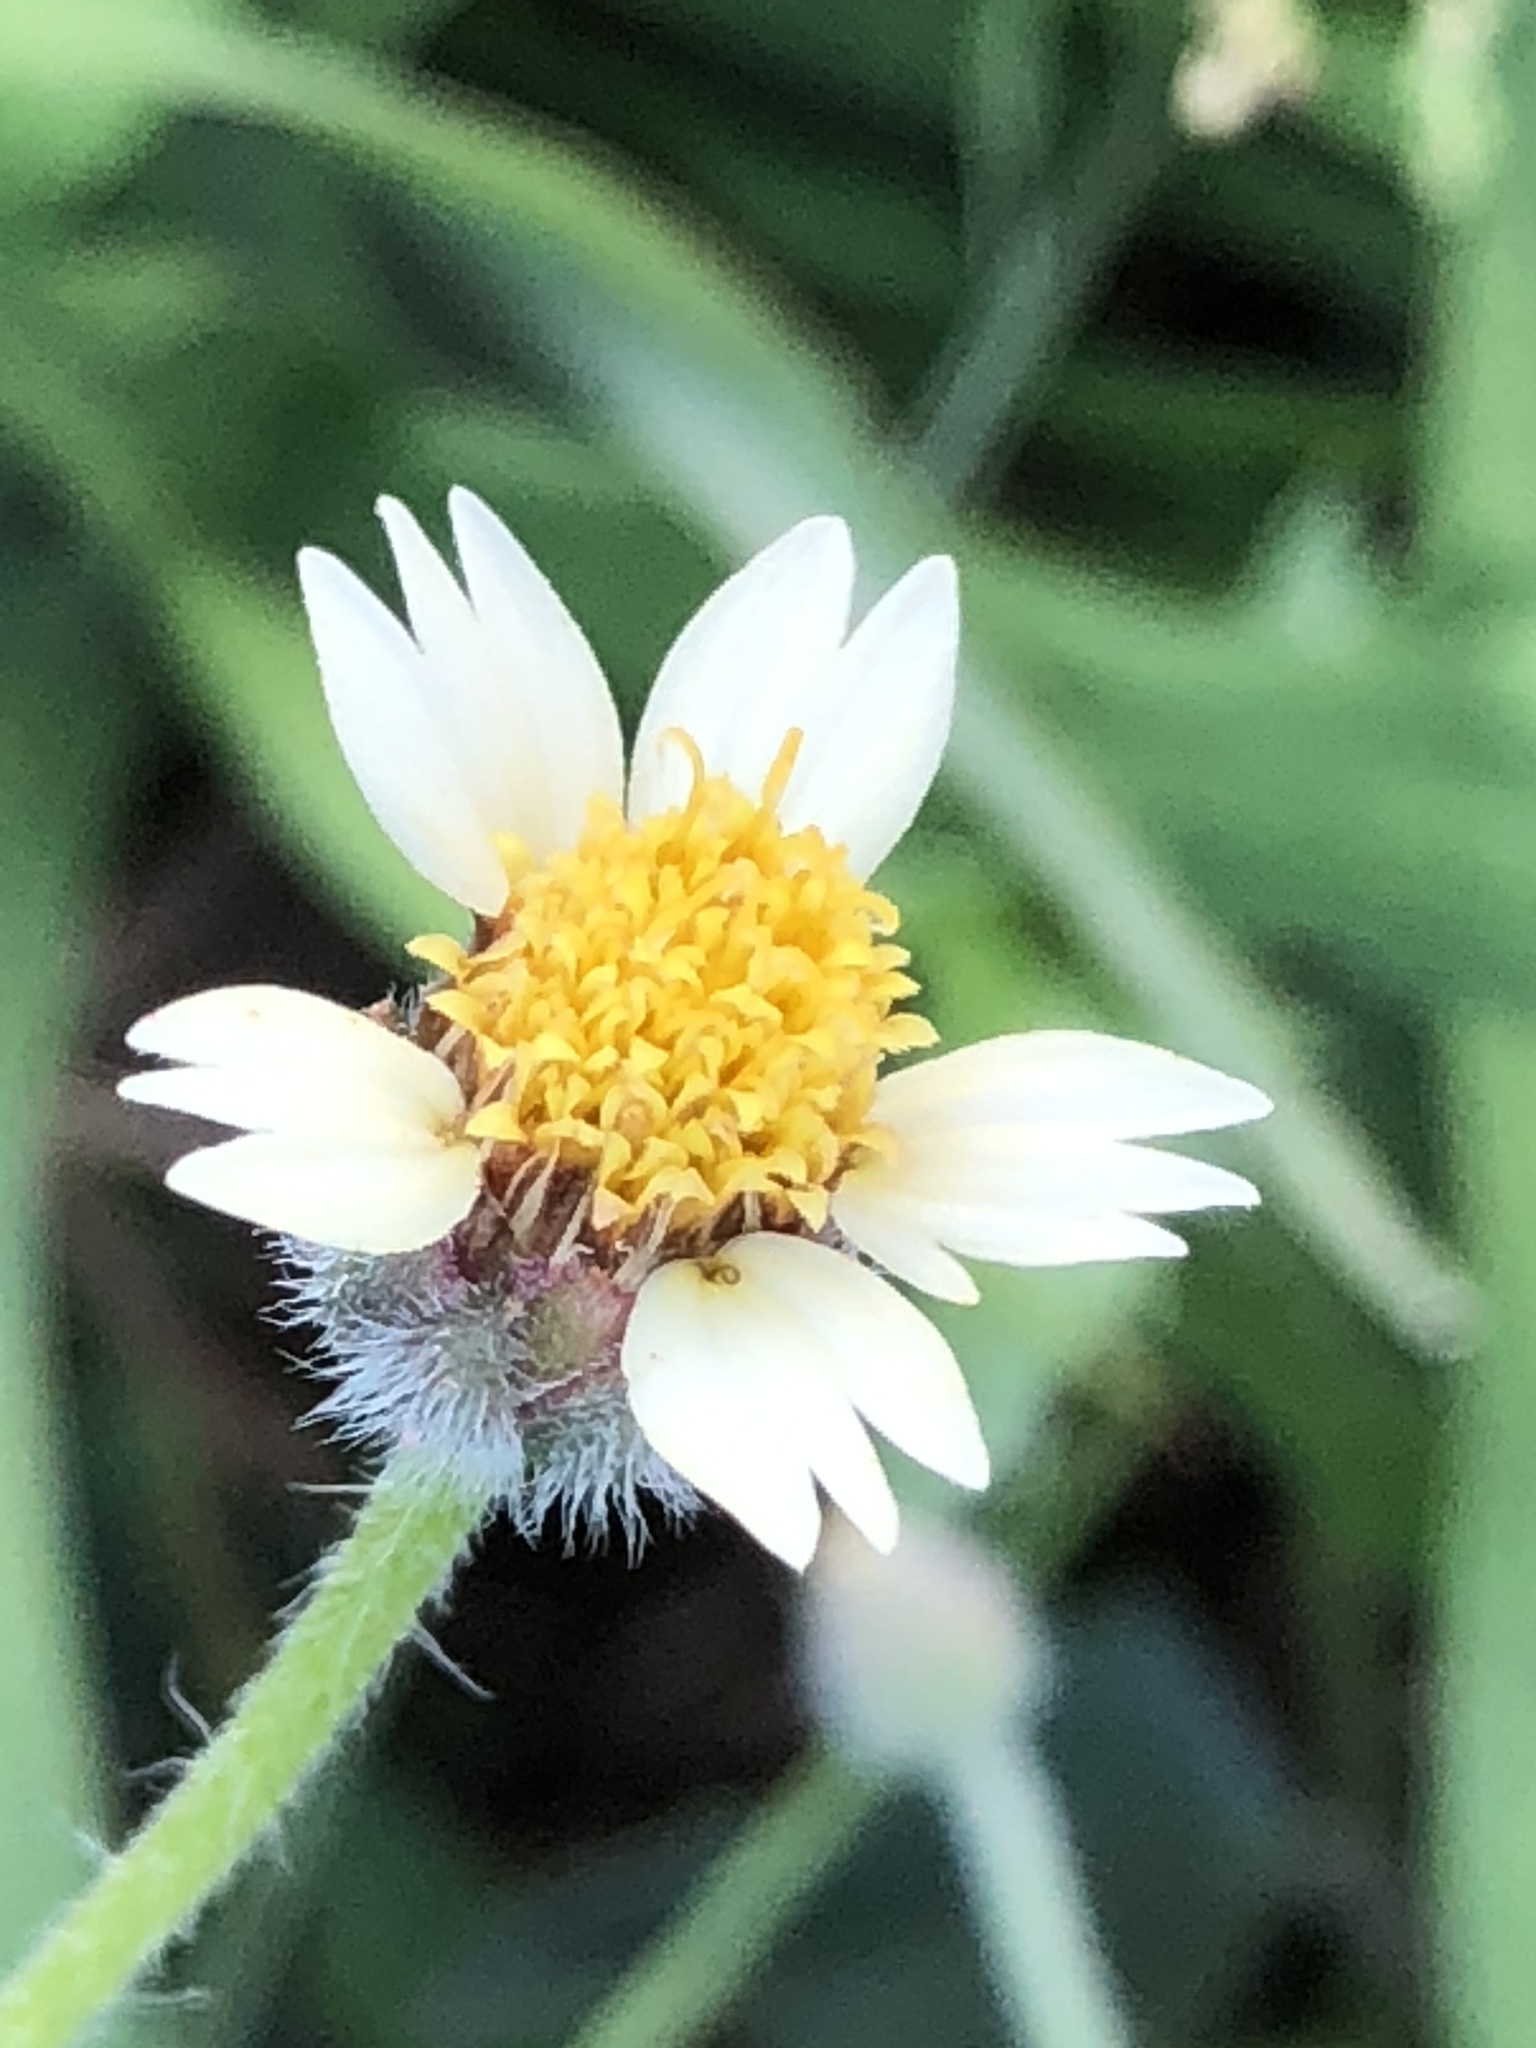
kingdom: Plantae
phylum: Tracheophyta
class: Magnoliopsida
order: Asterales
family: Asteraceae
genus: Tridax
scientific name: Tridax procumbens
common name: Coatbuttons
